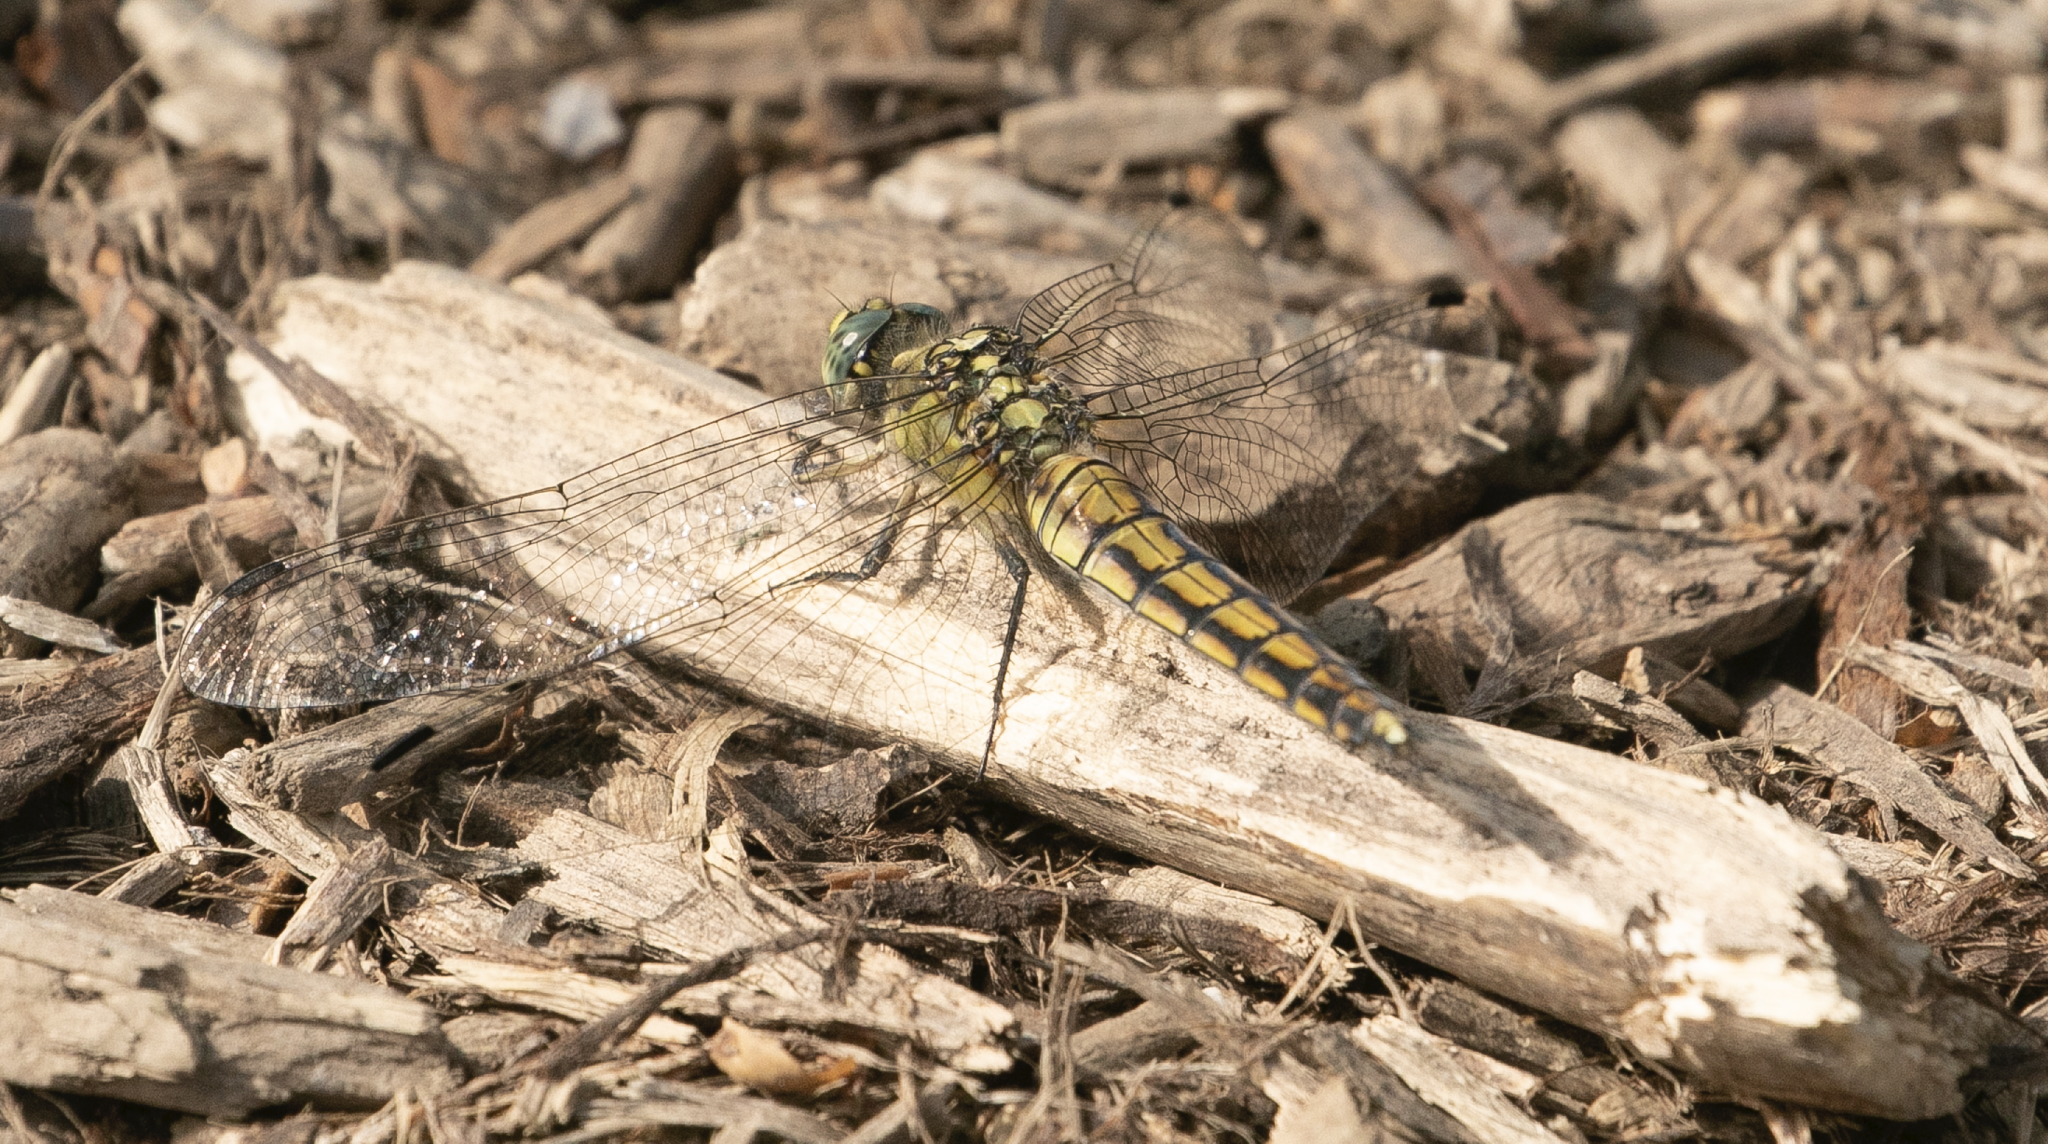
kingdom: Animalia
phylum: Arthropoda
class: Insecta
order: Odonata
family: Libellulidae
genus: Orthetrum
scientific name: Orthetrum cancellatum
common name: Black-tailed skimmer
